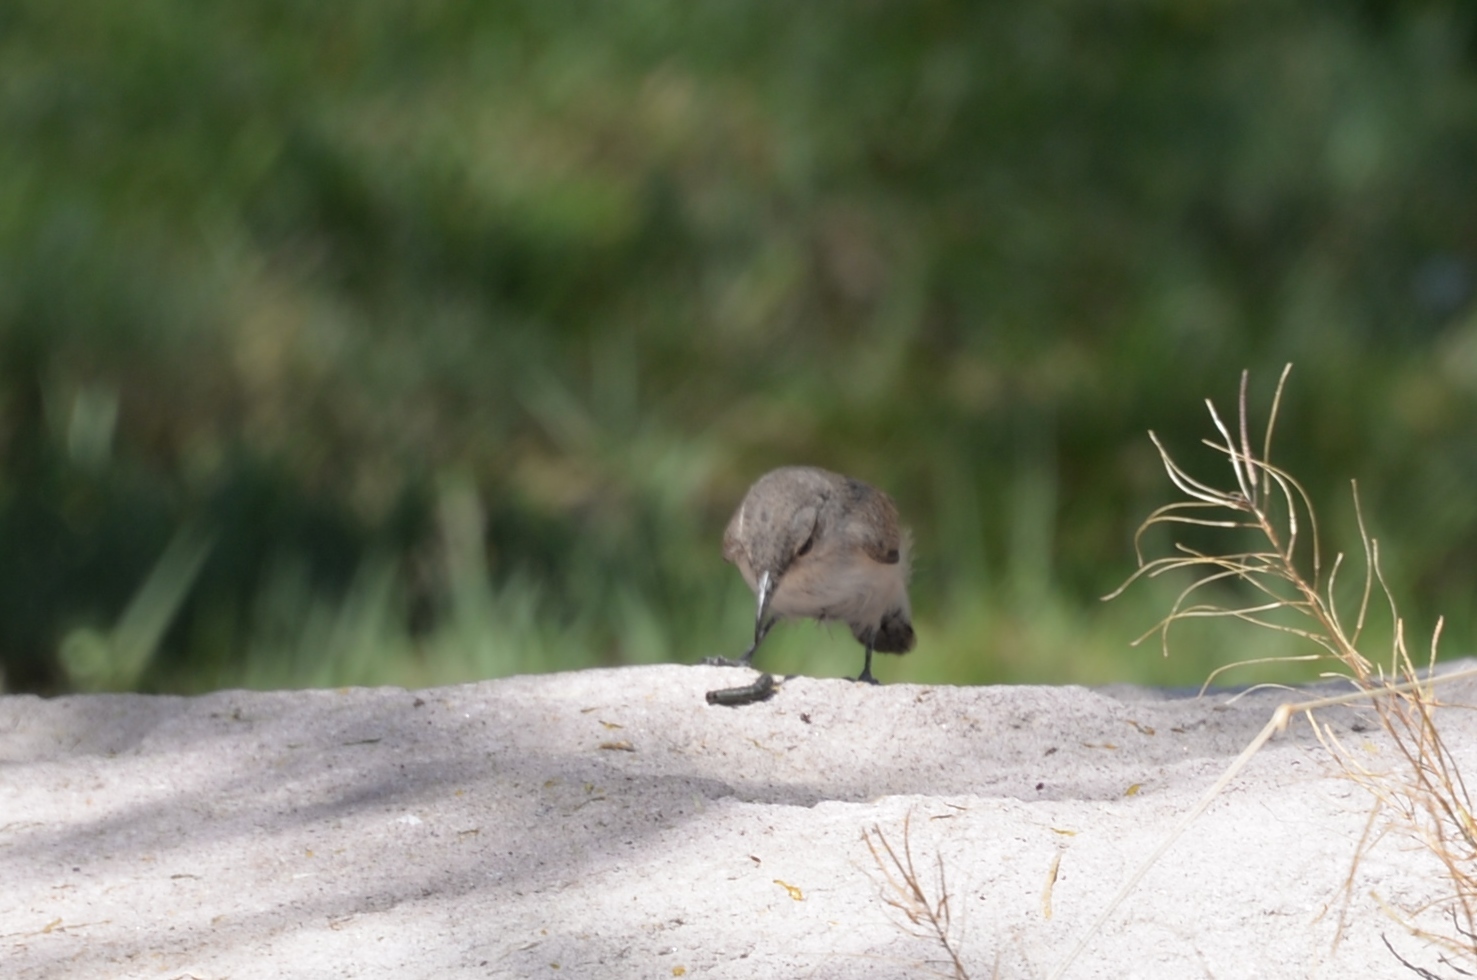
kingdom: Animalia
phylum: Chordata
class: Aves
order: Passeriformes
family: Troglodytidae
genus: Salpinctes
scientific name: Salpinctes obsoletus
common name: Rock wren
